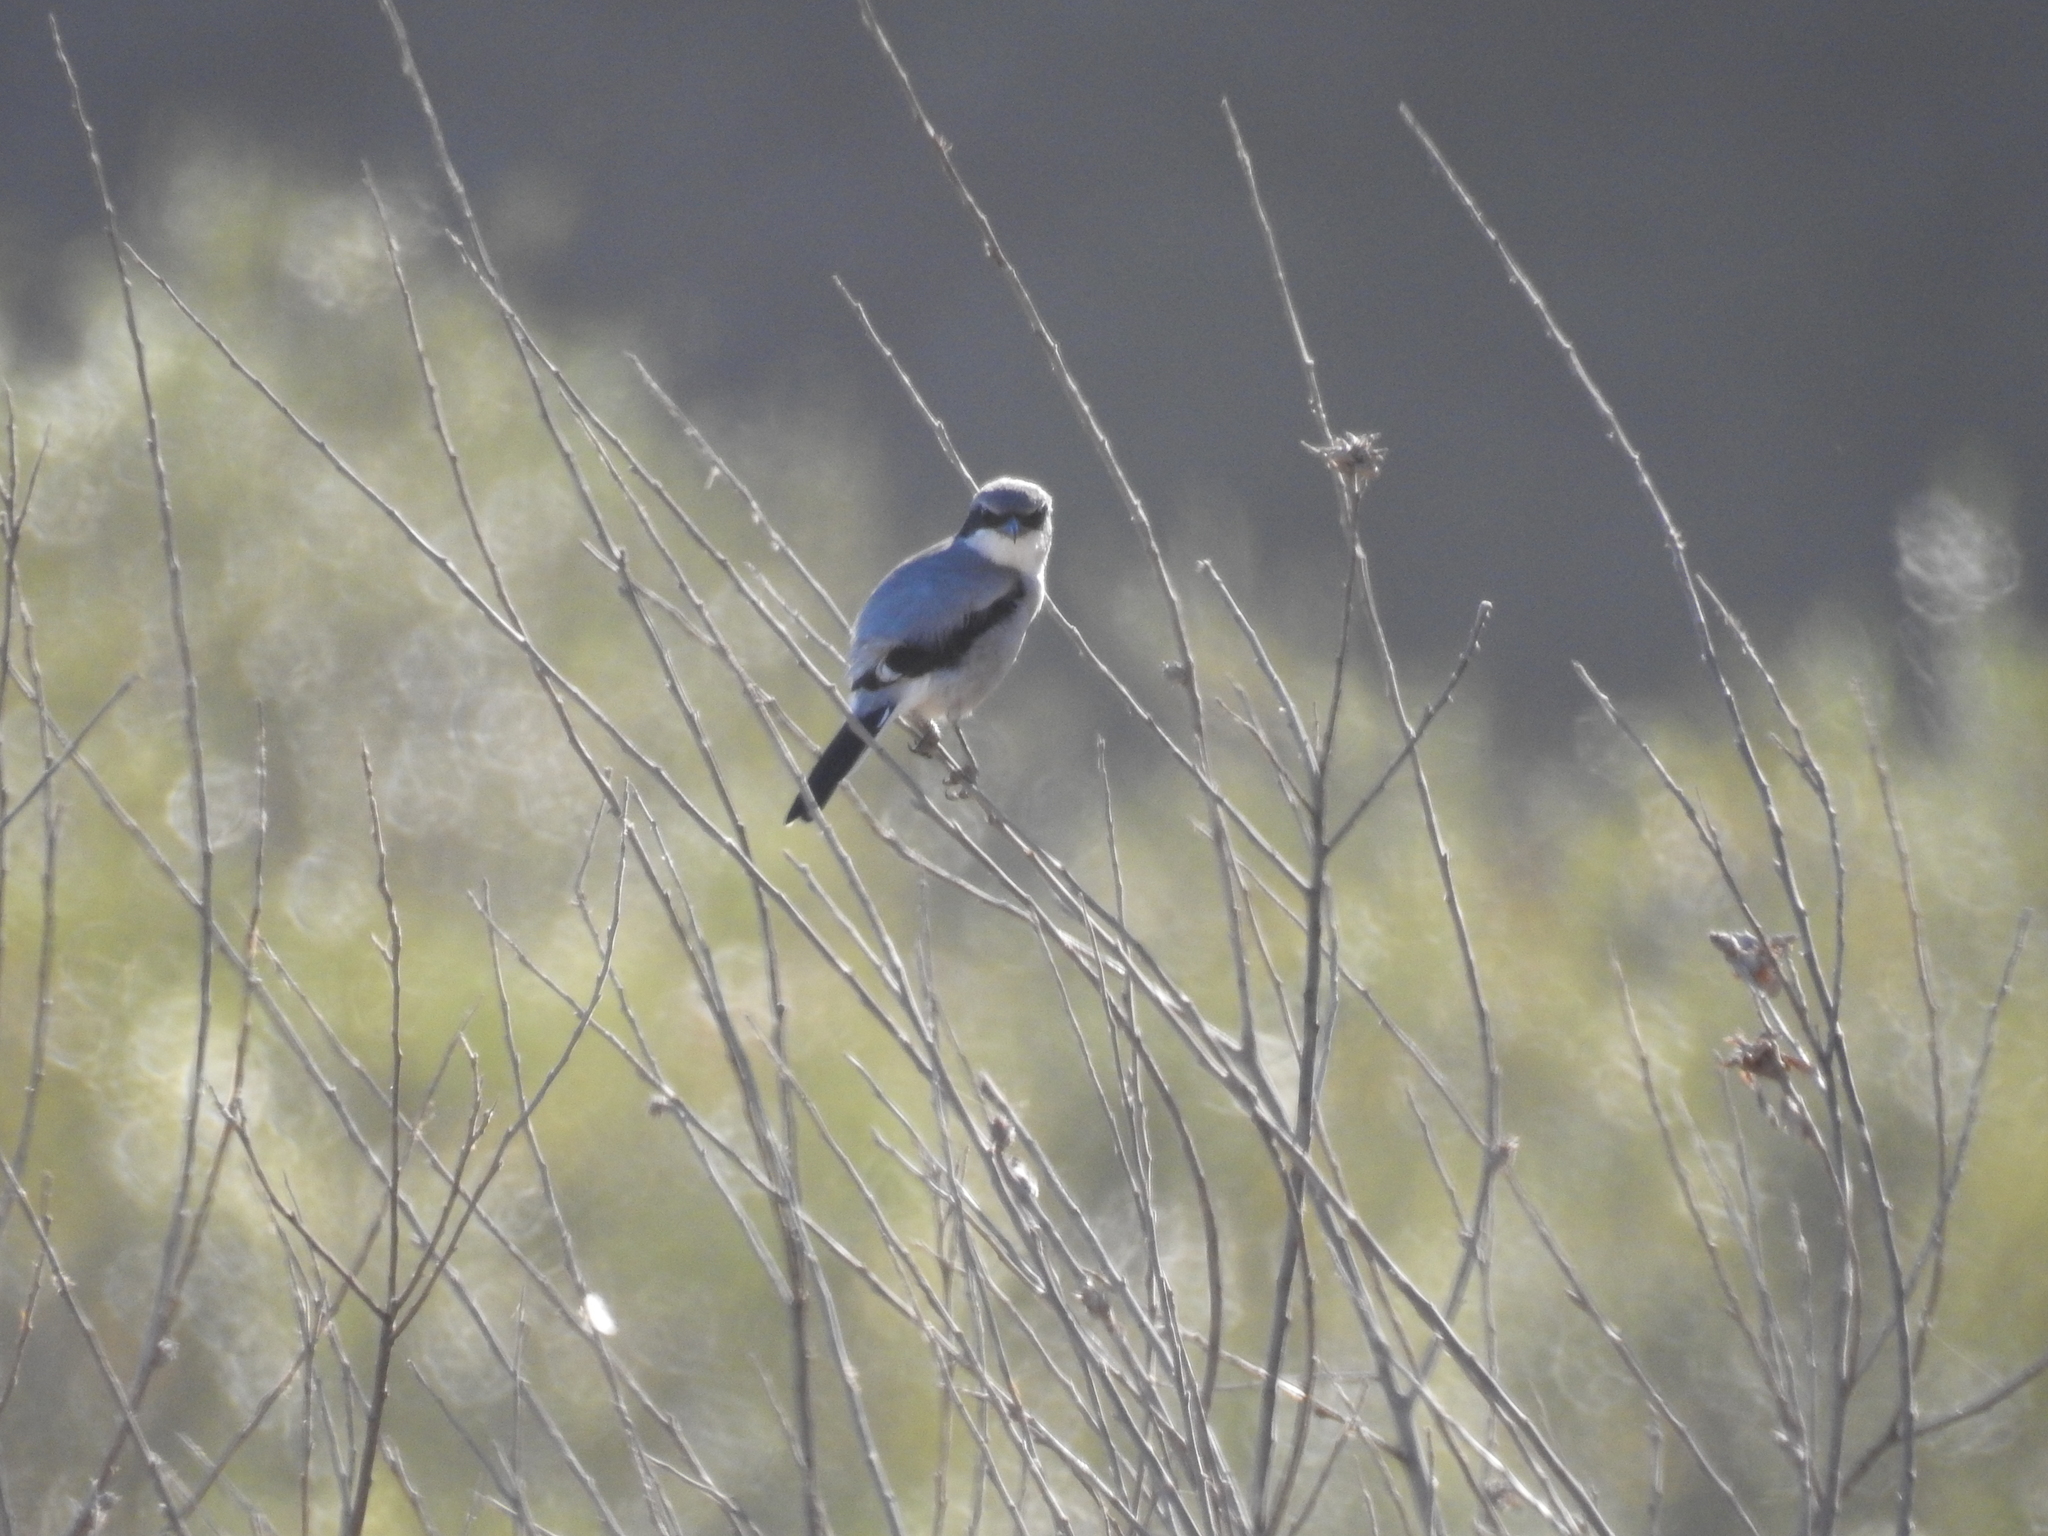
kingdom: Animalia
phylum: Chordata
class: Aves
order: Passeriformes
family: Laniidae
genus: Lanius
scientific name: Lanius ludovicianus
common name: Loggerhead shrike
